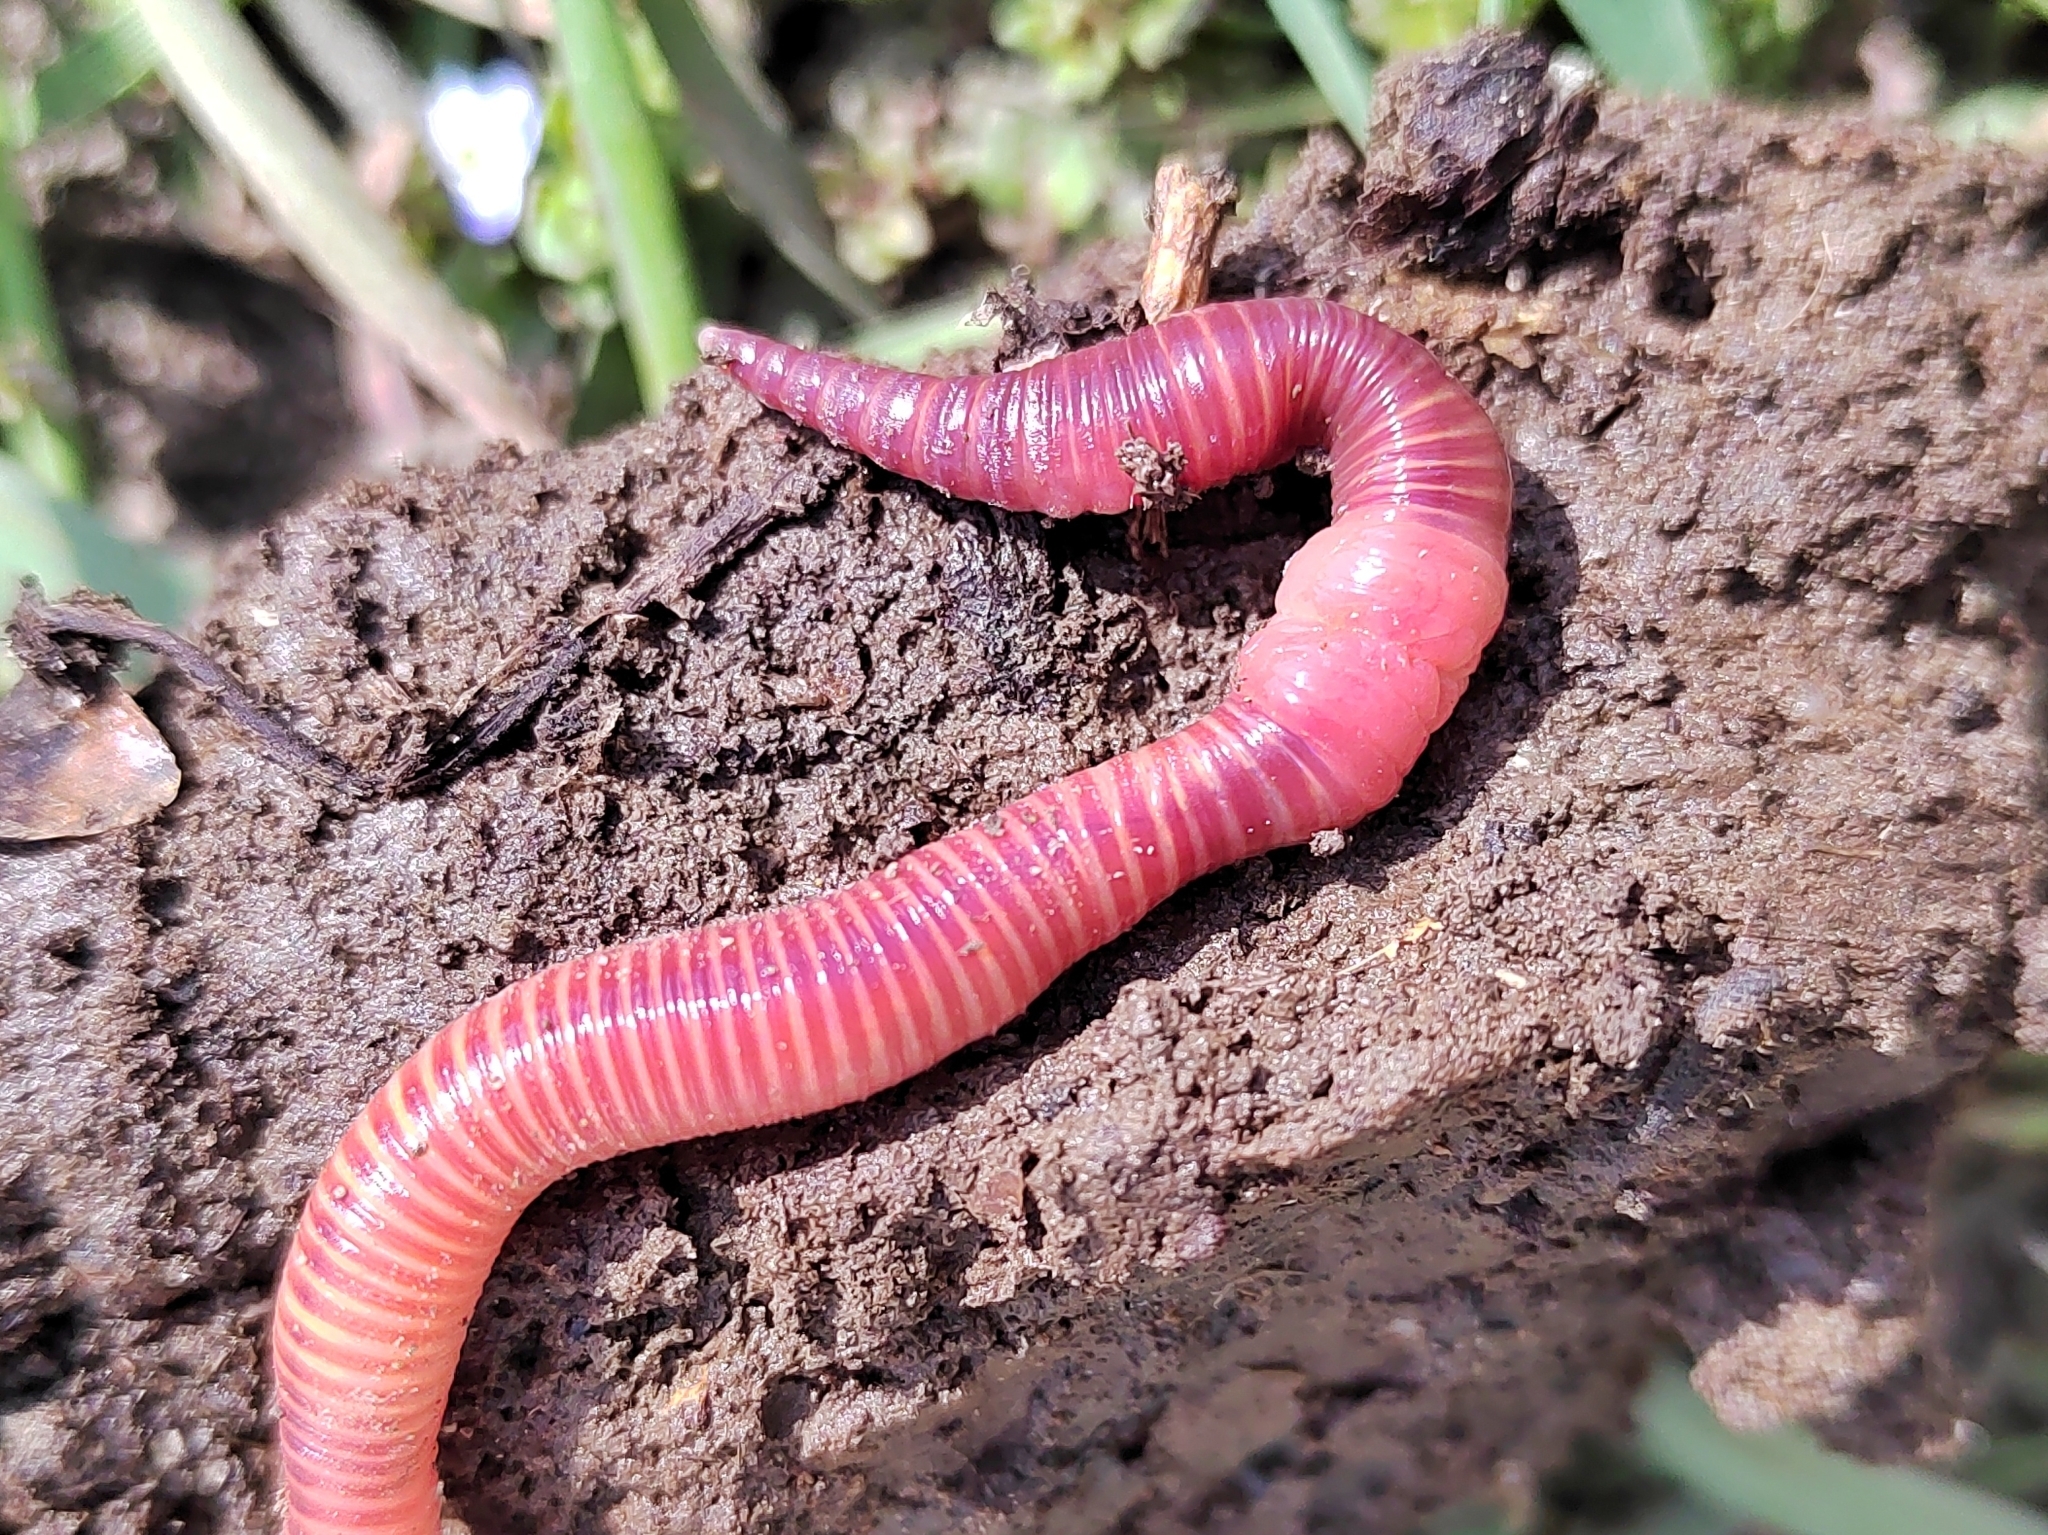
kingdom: Animalia
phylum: Annelida
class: Clitellata
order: Crassiclitellata
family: Lumbricidae
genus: Eisenia
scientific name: Eisenia fetida
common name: Red wiggler
